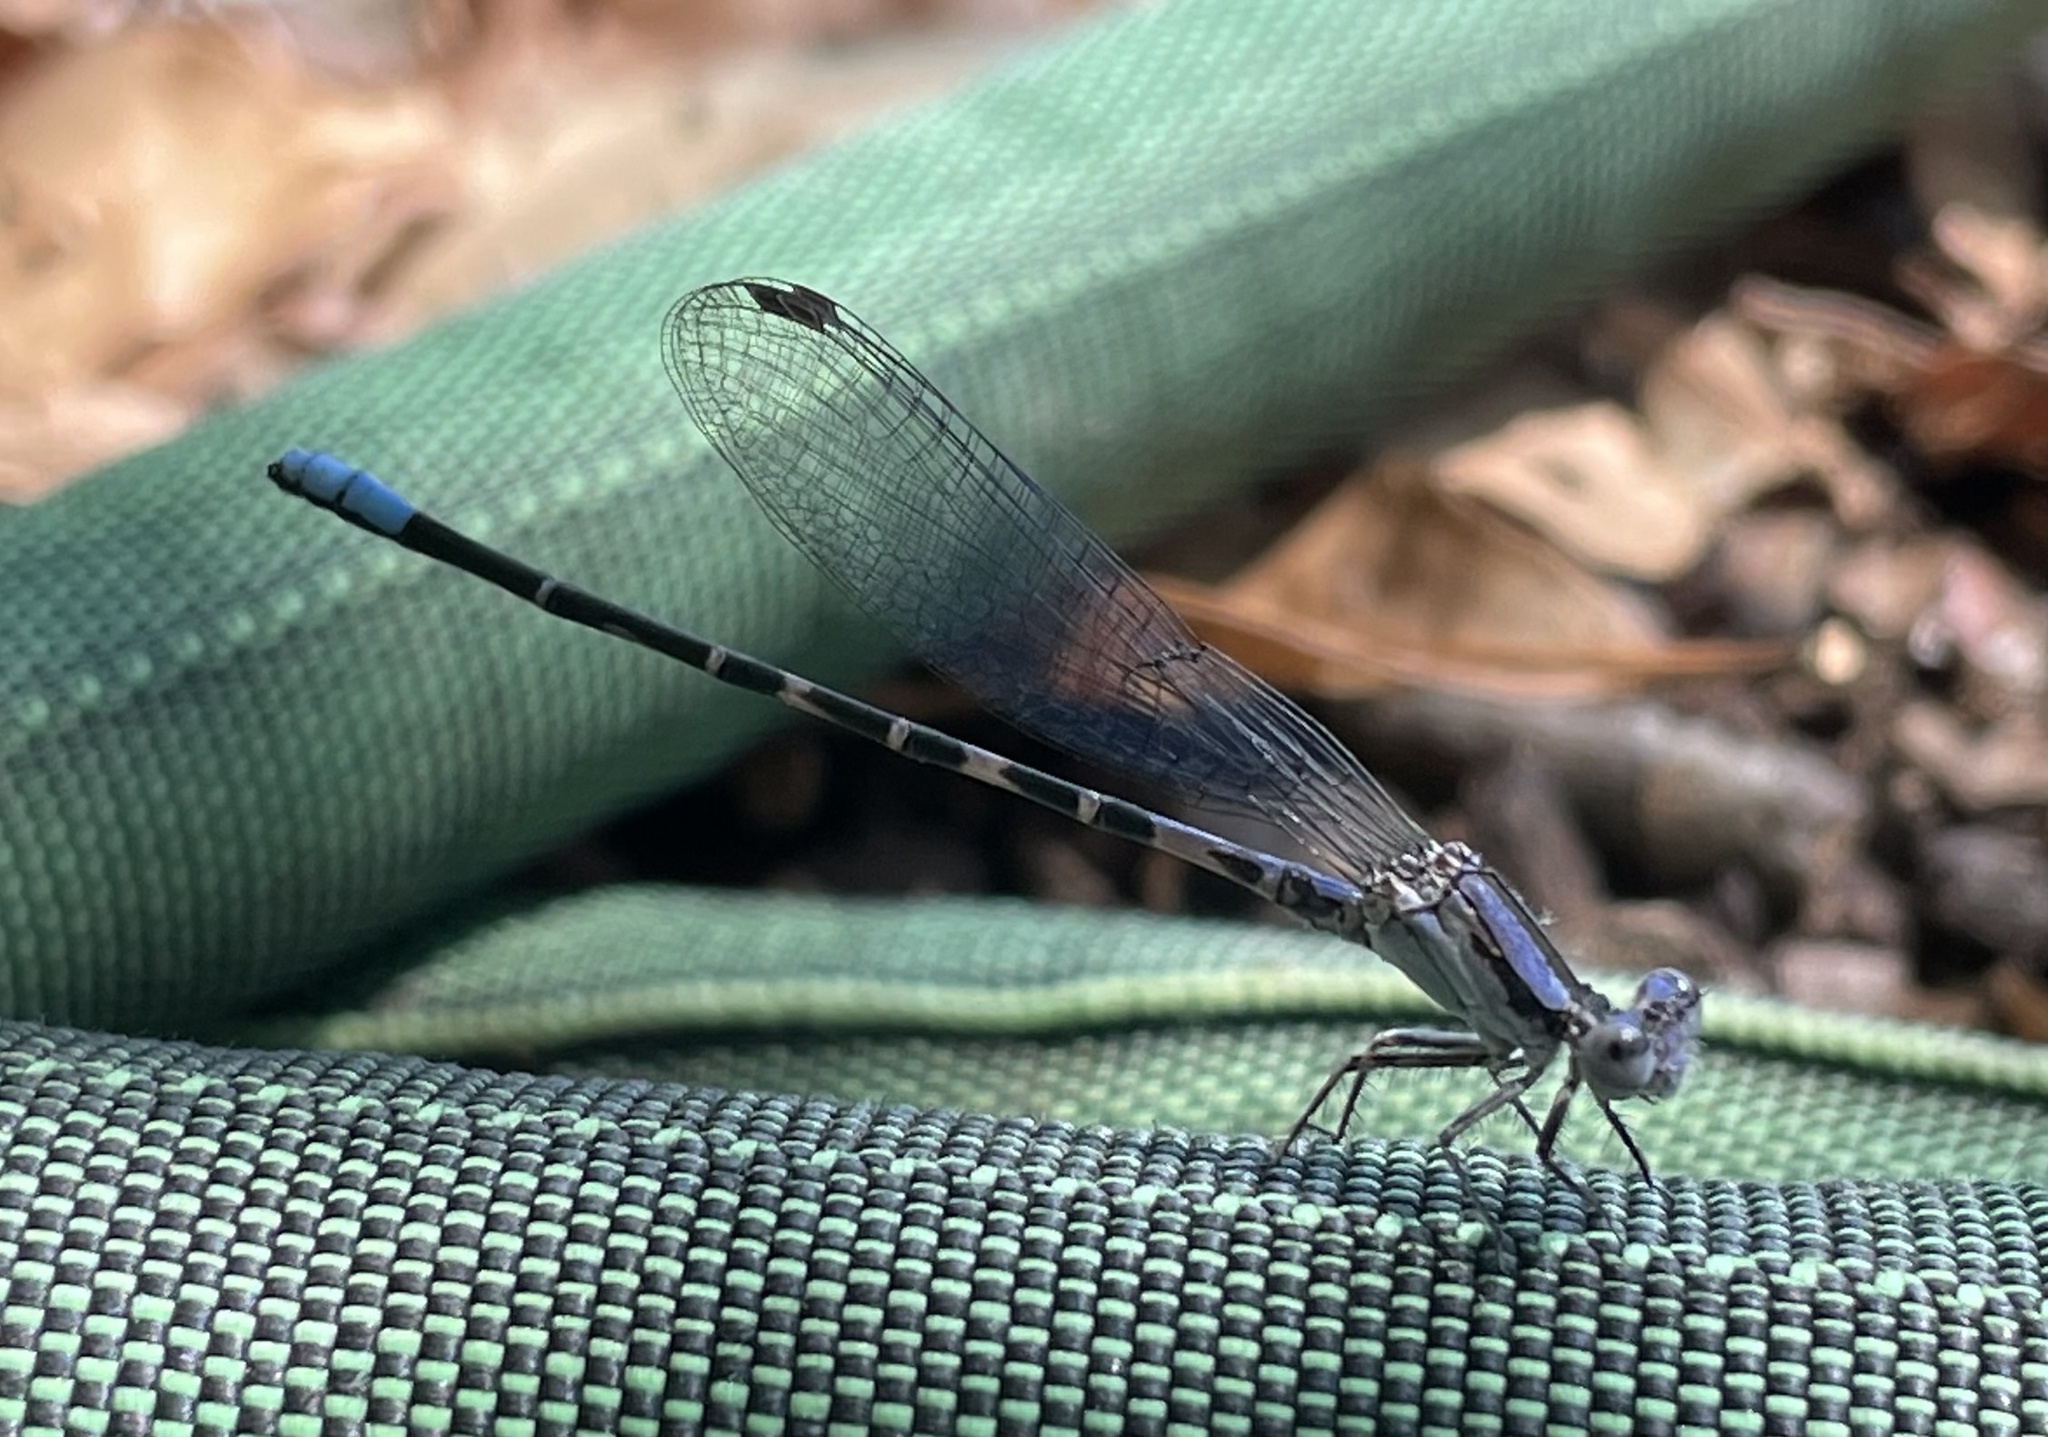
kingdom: Animalia
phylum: Arthropoda
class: Insecta
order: Odonata
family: Coenagrionidae
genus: Argia
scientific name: Argia immunda
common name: Kiowa dancer
